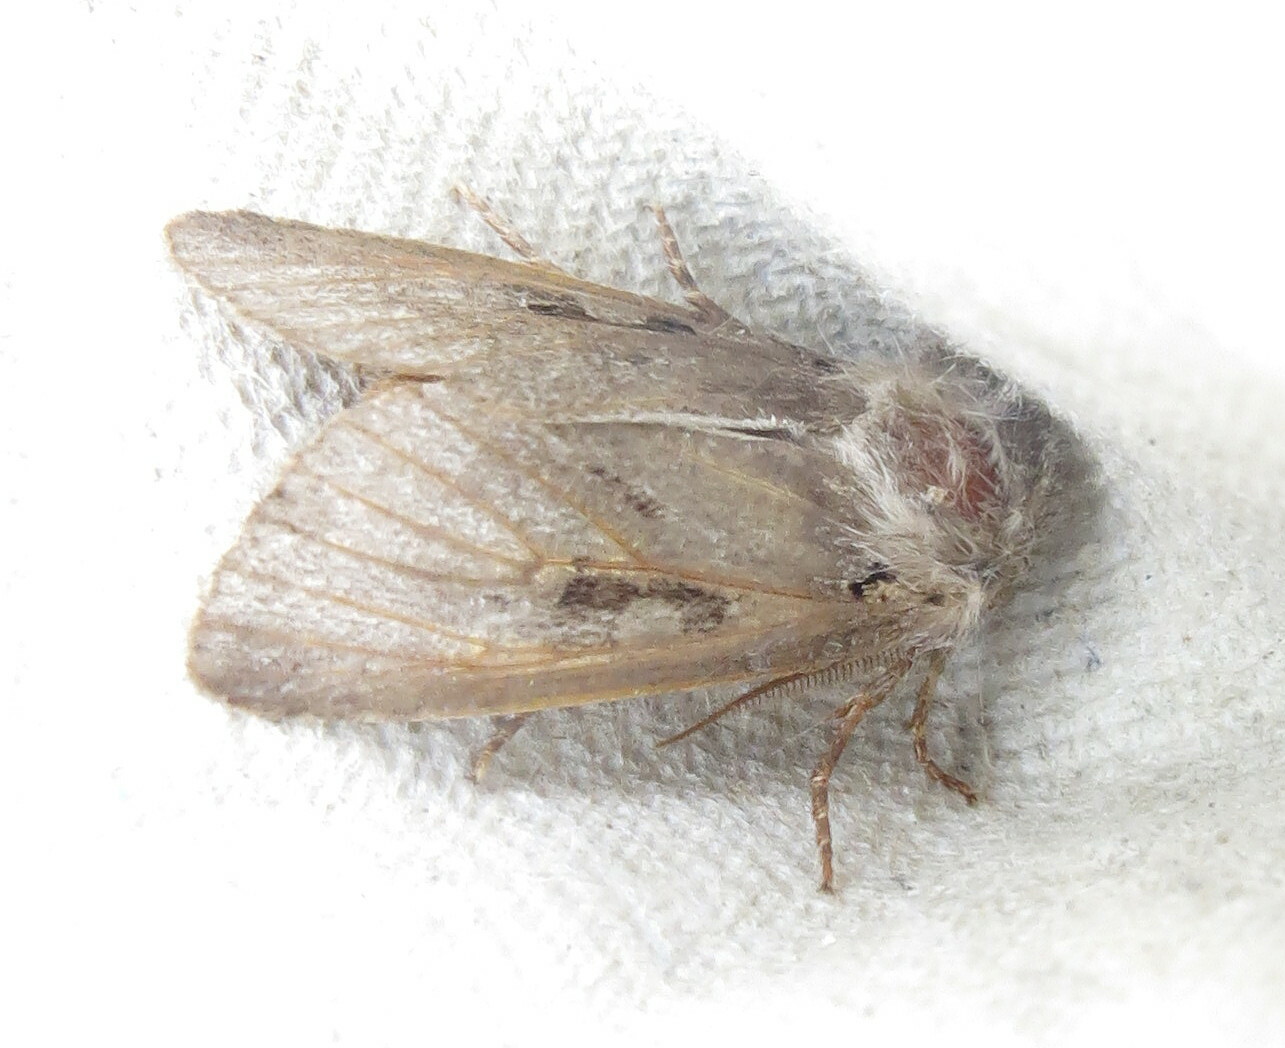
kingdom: Animalia
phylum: Arthropoda
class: Insecta
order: Lepidoptera
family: Noctuidae
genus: Orthosia
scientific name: Orthosia gothica
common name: Hebrew character
